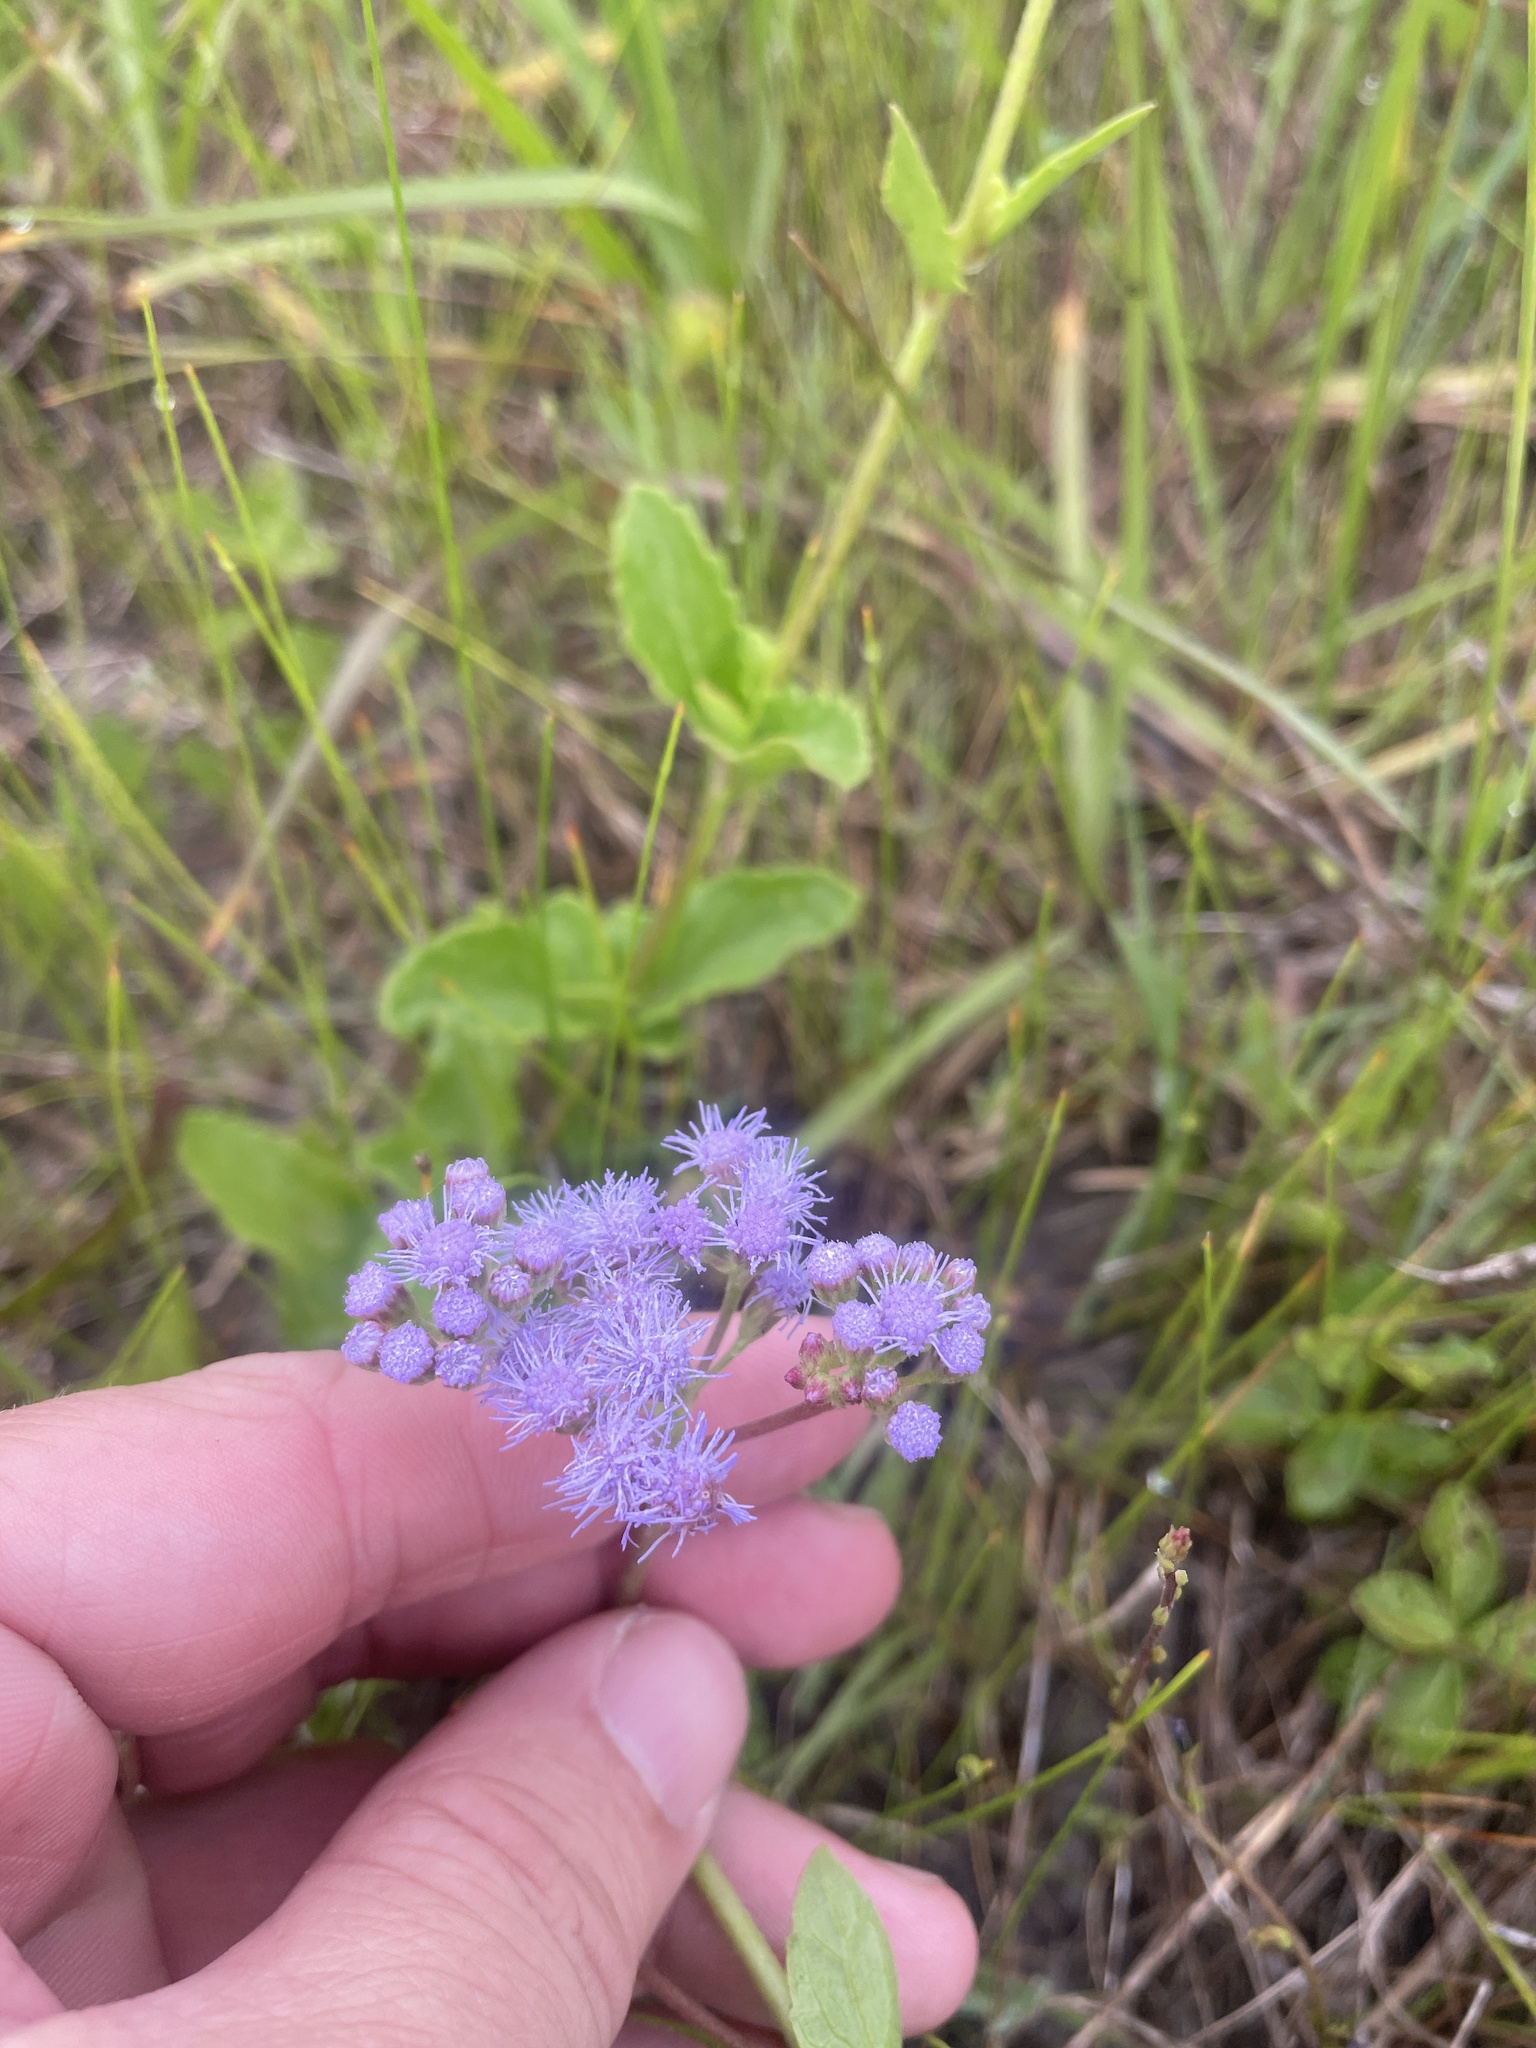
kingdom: Plantae
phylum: Tracheophyta
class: Magnoliopsida
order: Asterales
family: Asteraceae
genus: Conoclinium
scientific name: Conoclinium betonicifolium
